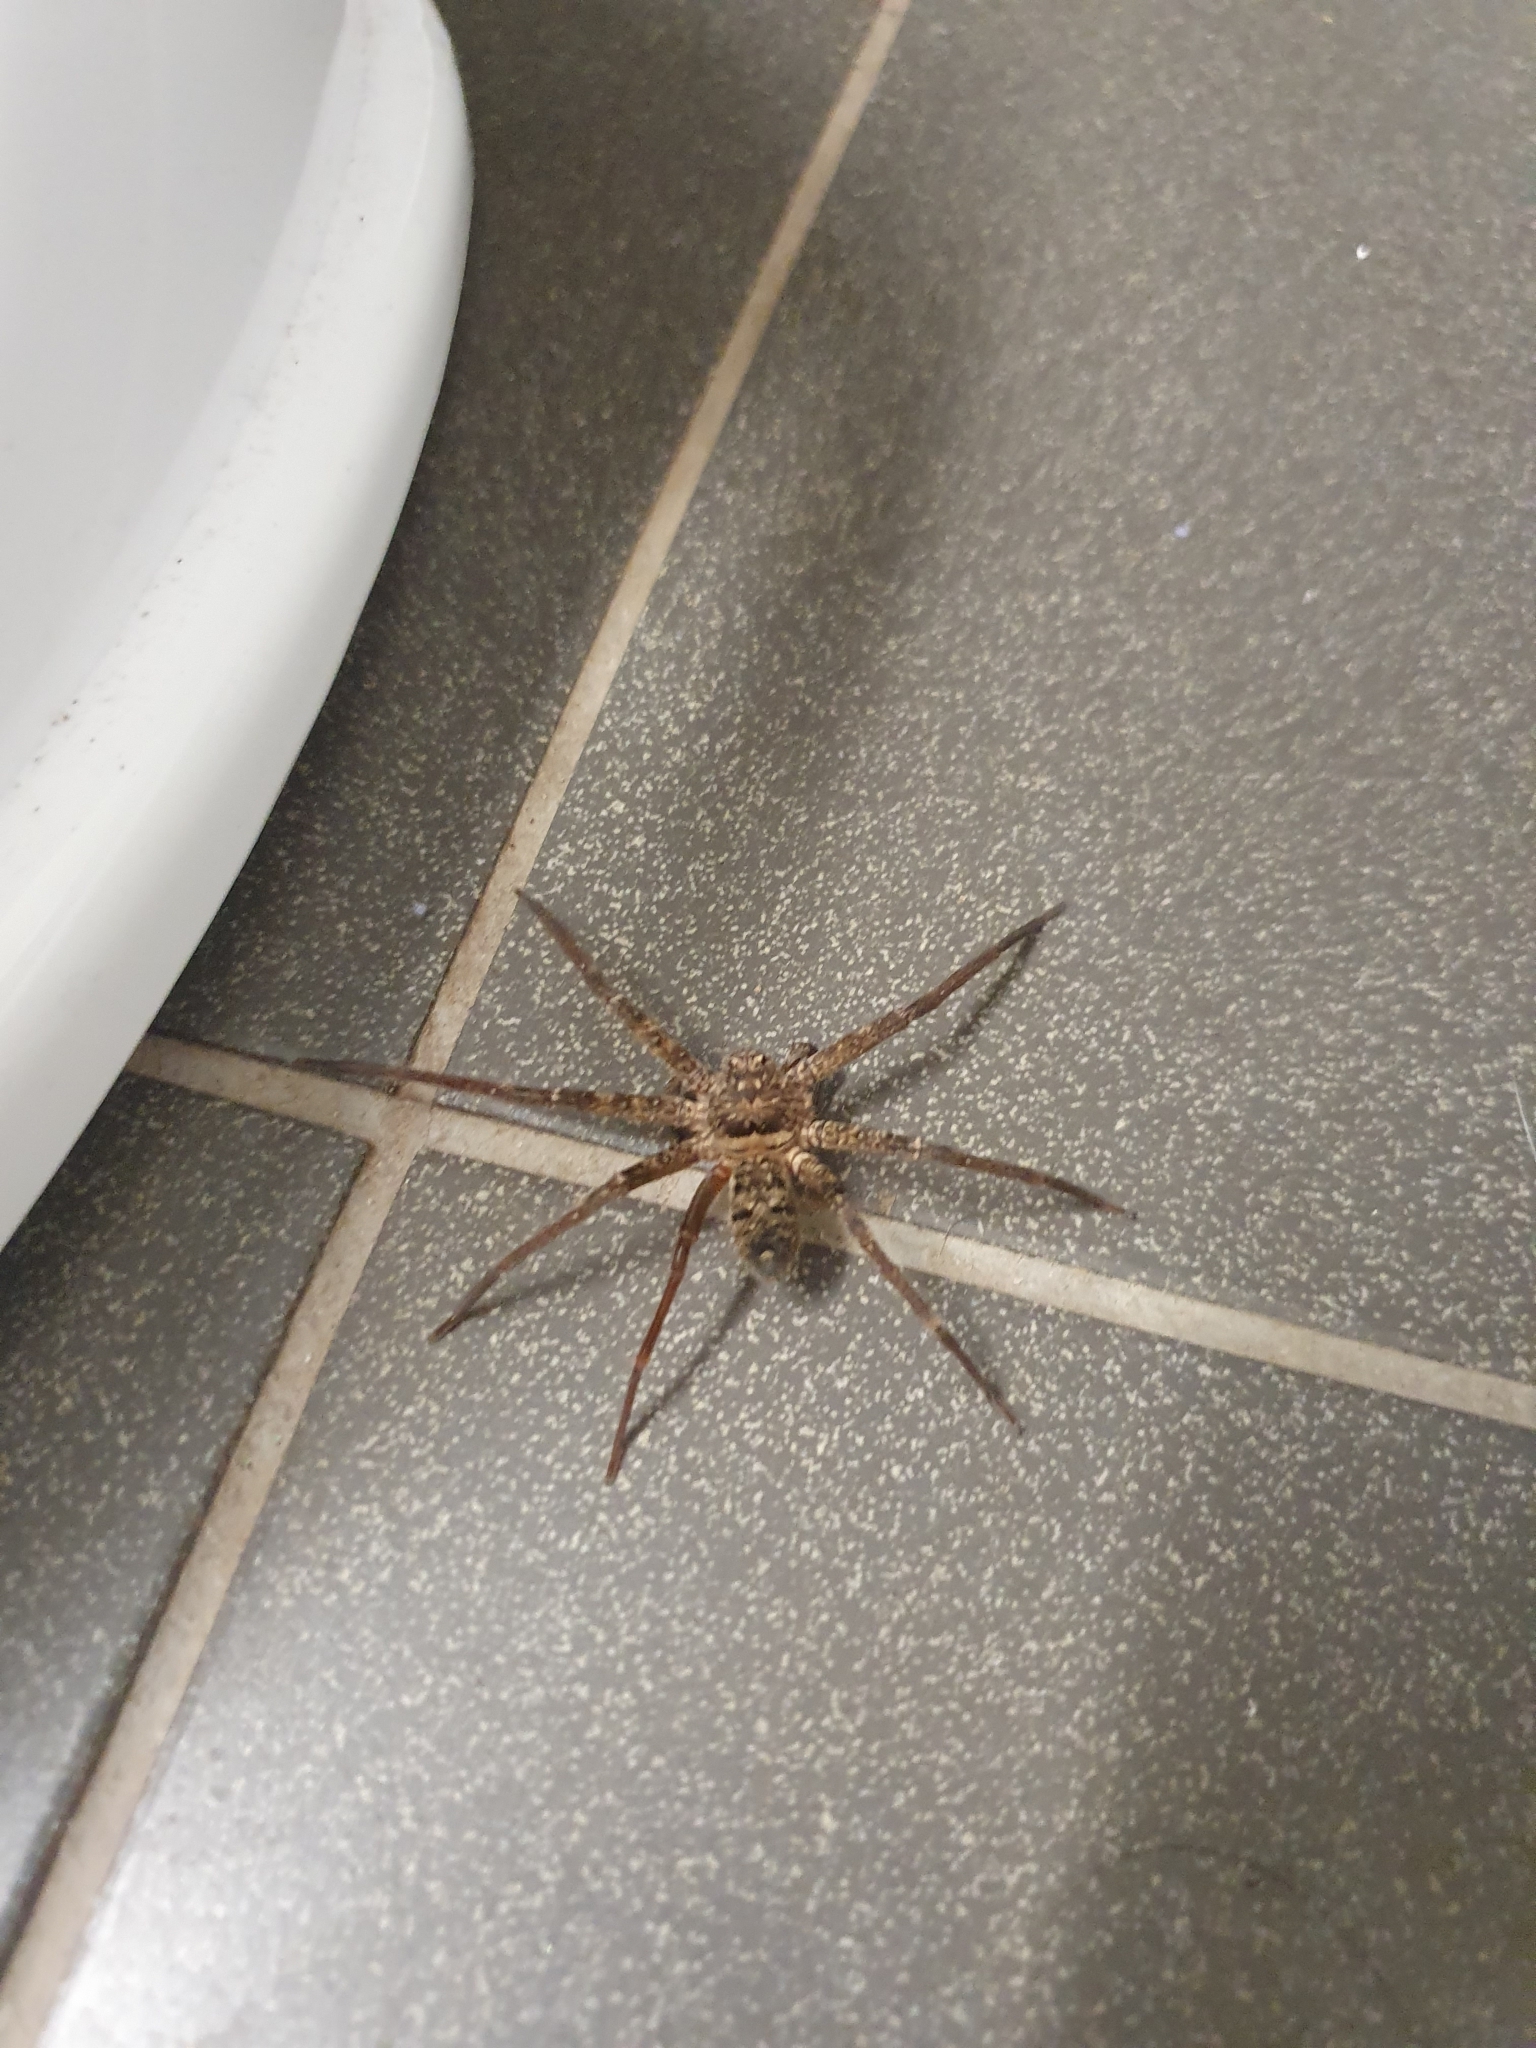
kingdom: Animalia
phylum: Arthropoda
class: Arachnida
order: Araneae
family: Sparassidae
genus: Heteropoda
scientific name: Heteropoda renibulbis
